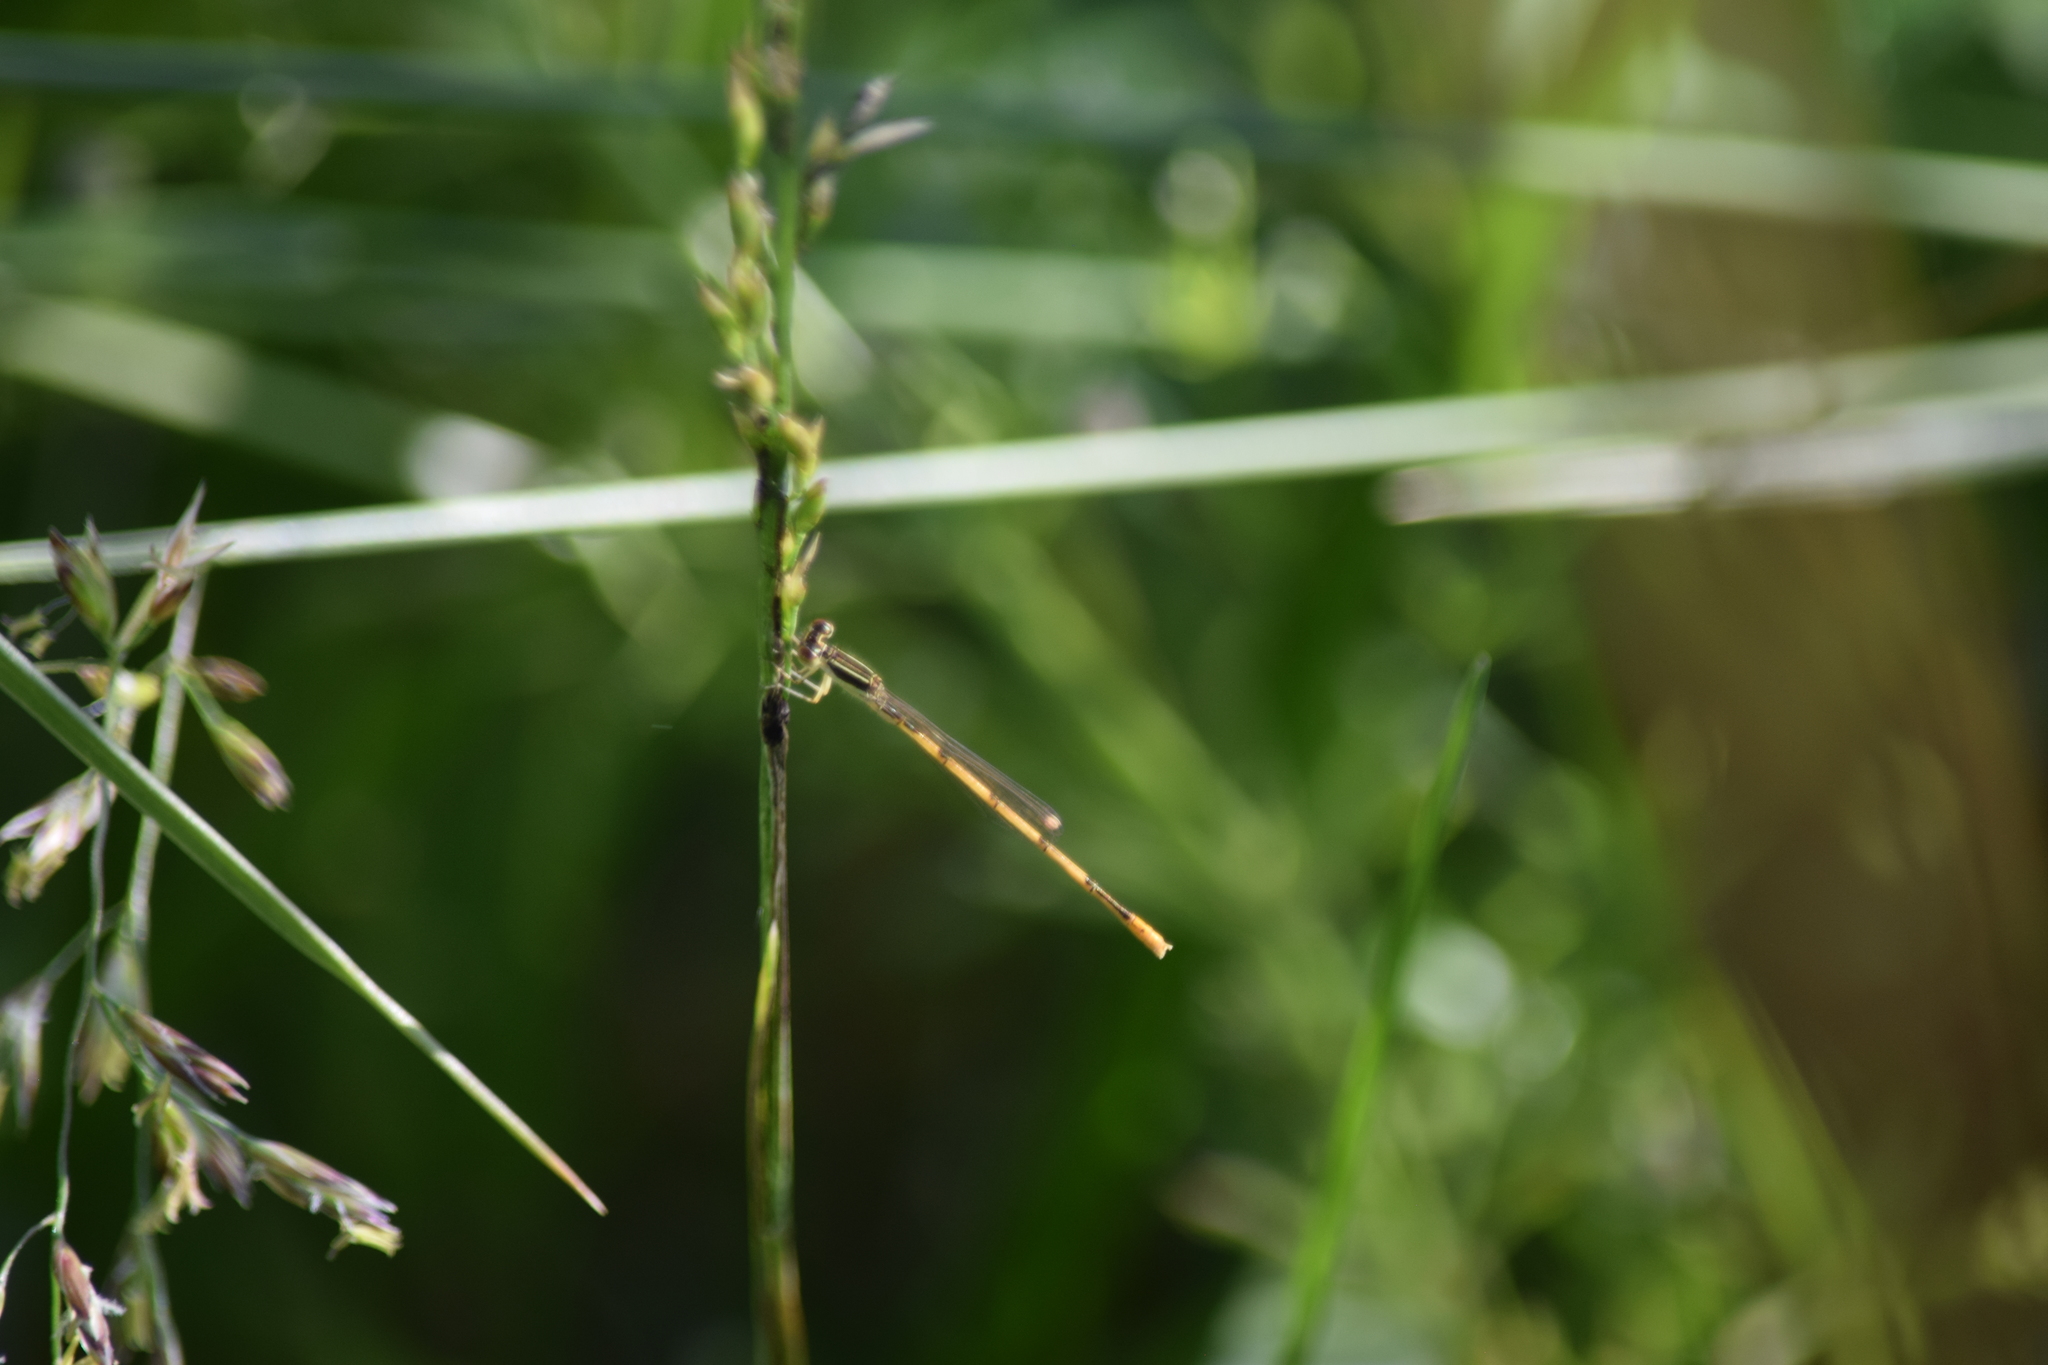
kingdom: Animalia
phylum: Arthropoda
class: Insecta
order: Odonata
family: Coenagrionidae
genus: Ischnura
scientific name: Ischnura hastata
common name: Citrine forktail
